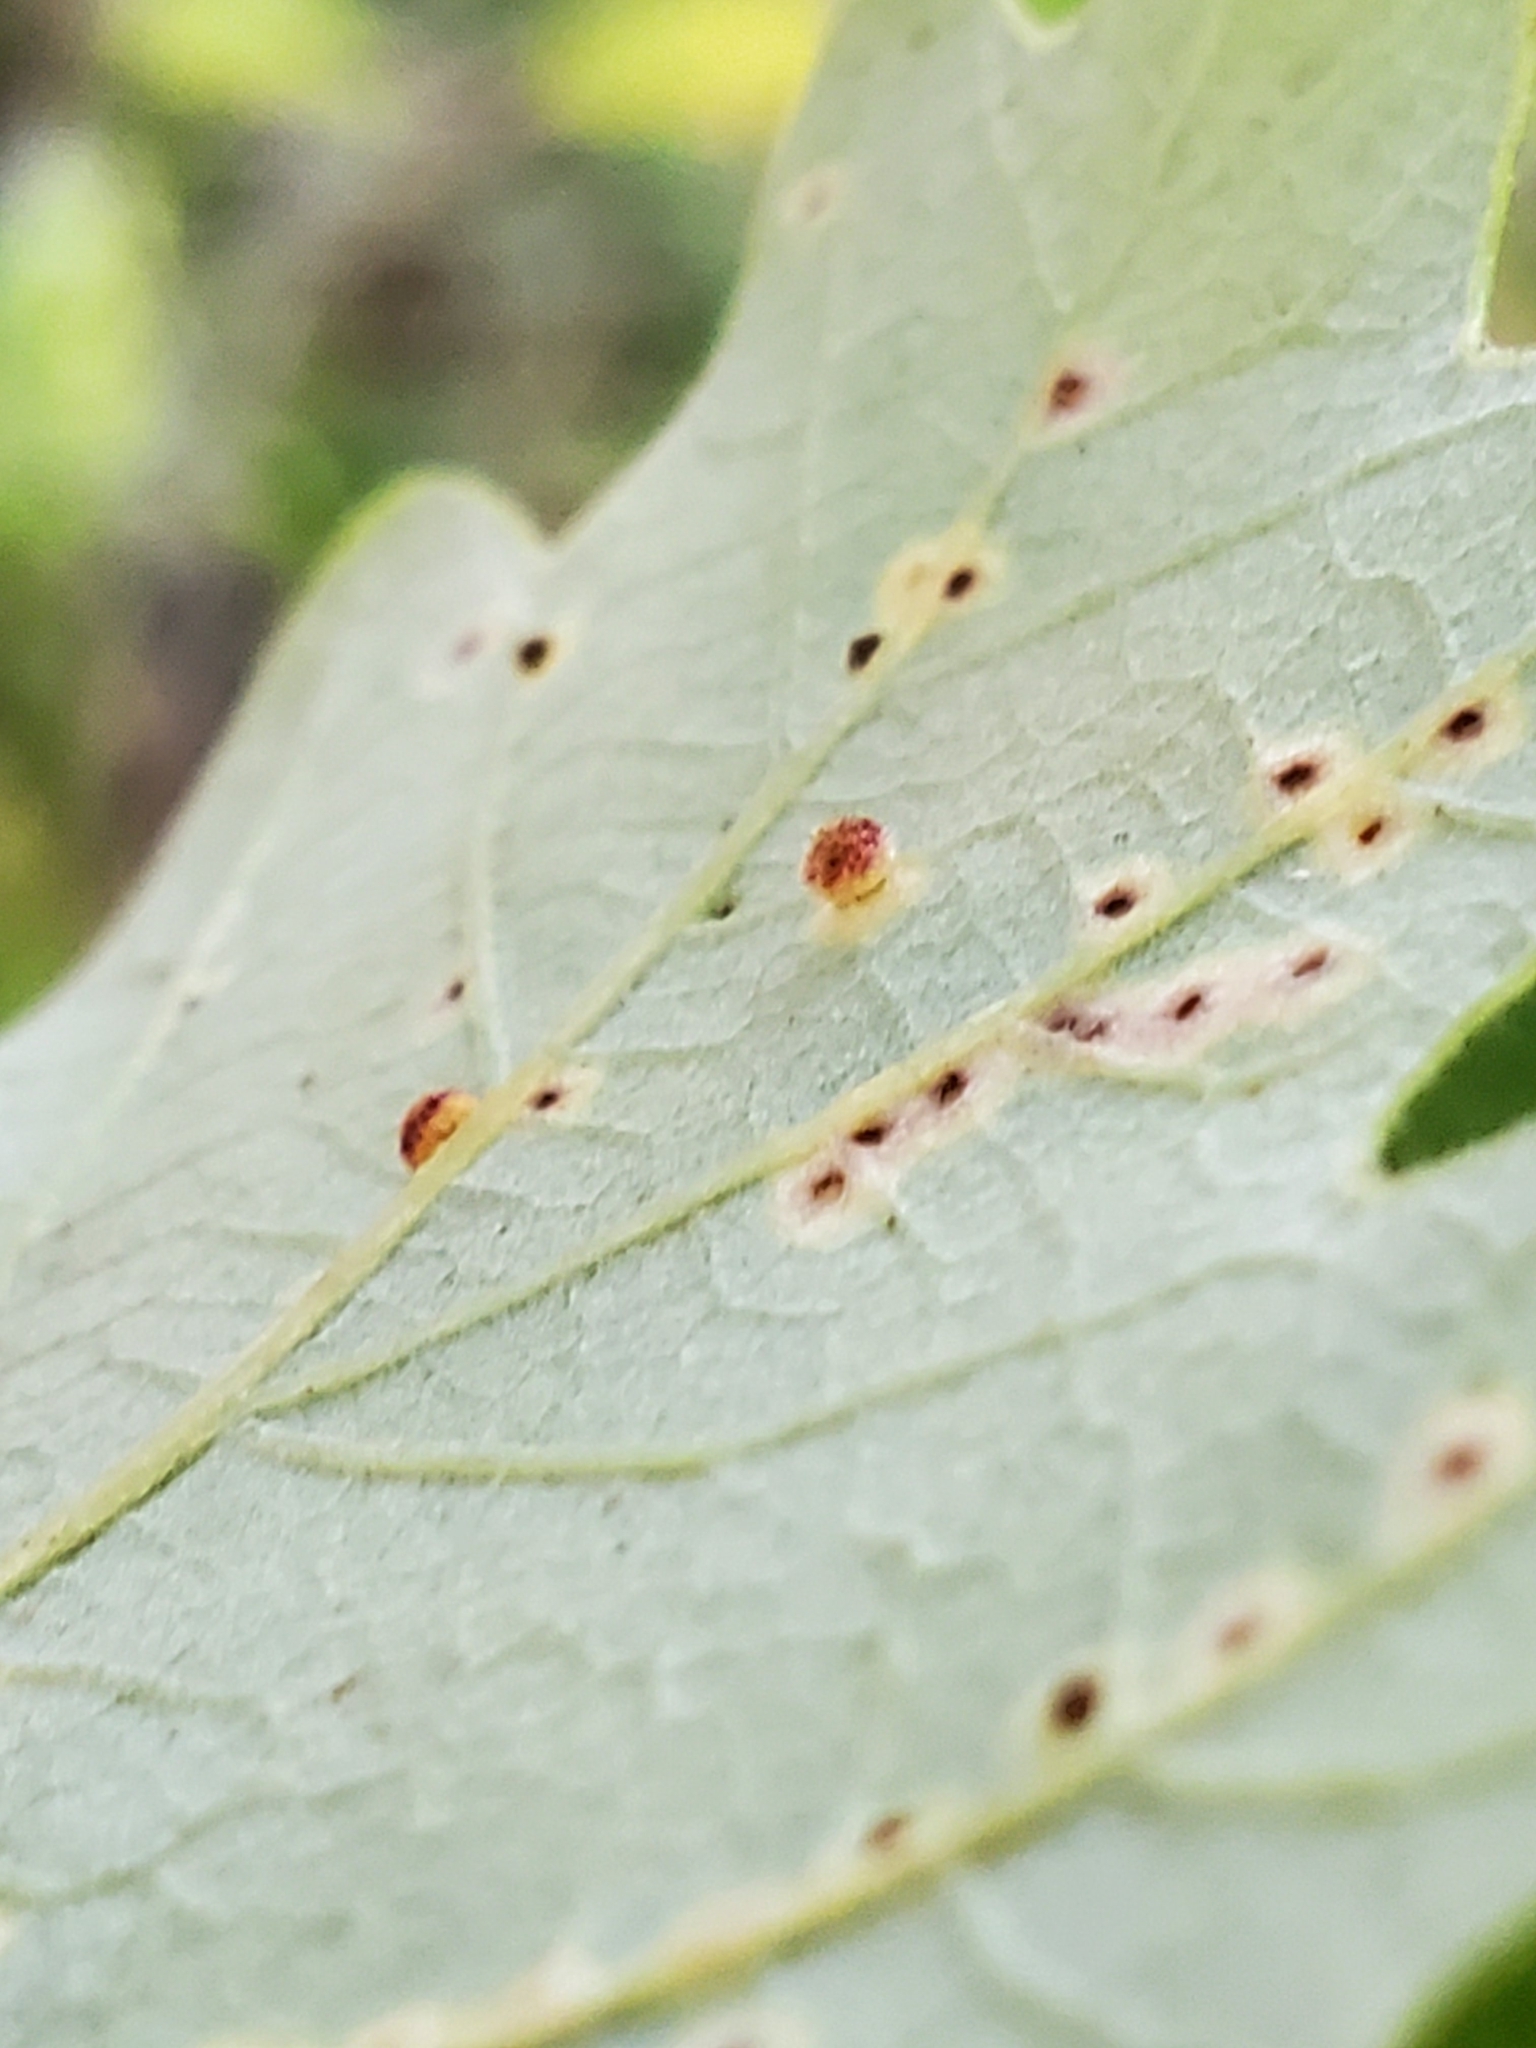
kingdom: Animalia
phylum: Arthropoda
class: Insecta
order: Hymenoptera
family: Cynipidae
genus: Neuroterus
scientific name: Neuroterus saltarius
